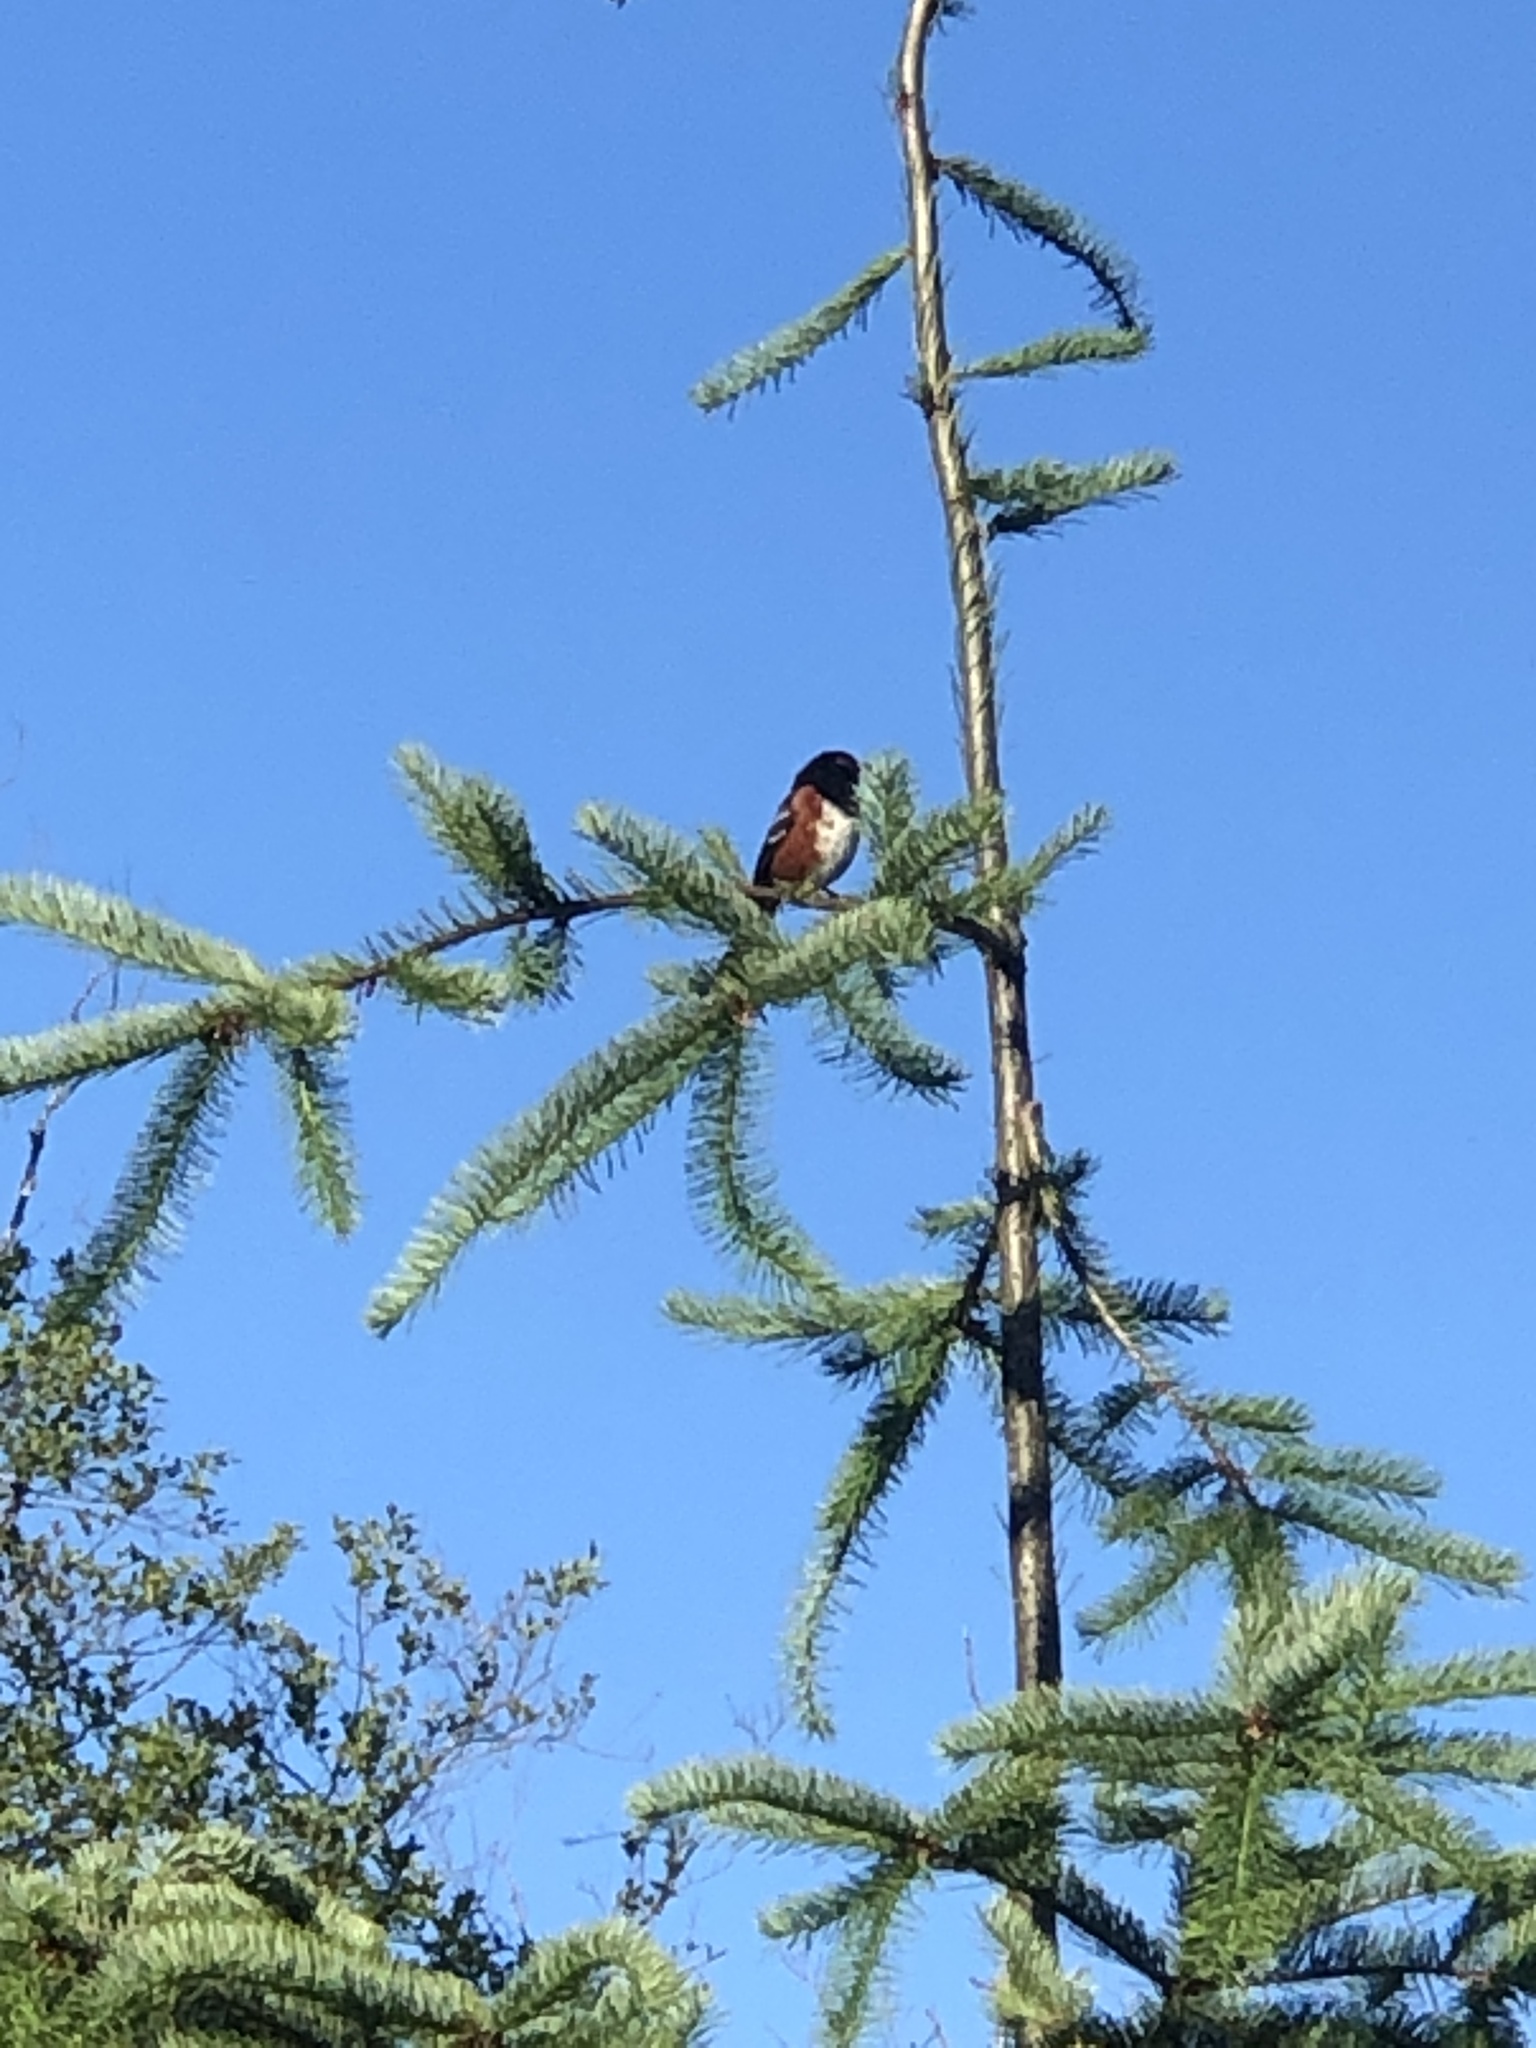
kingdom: Animalia
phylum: Chordata
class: Aves
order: Passeriformes
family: Passerellidae
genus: Pipilo
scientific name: Pipilo maculatus
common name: Spotted towhee
